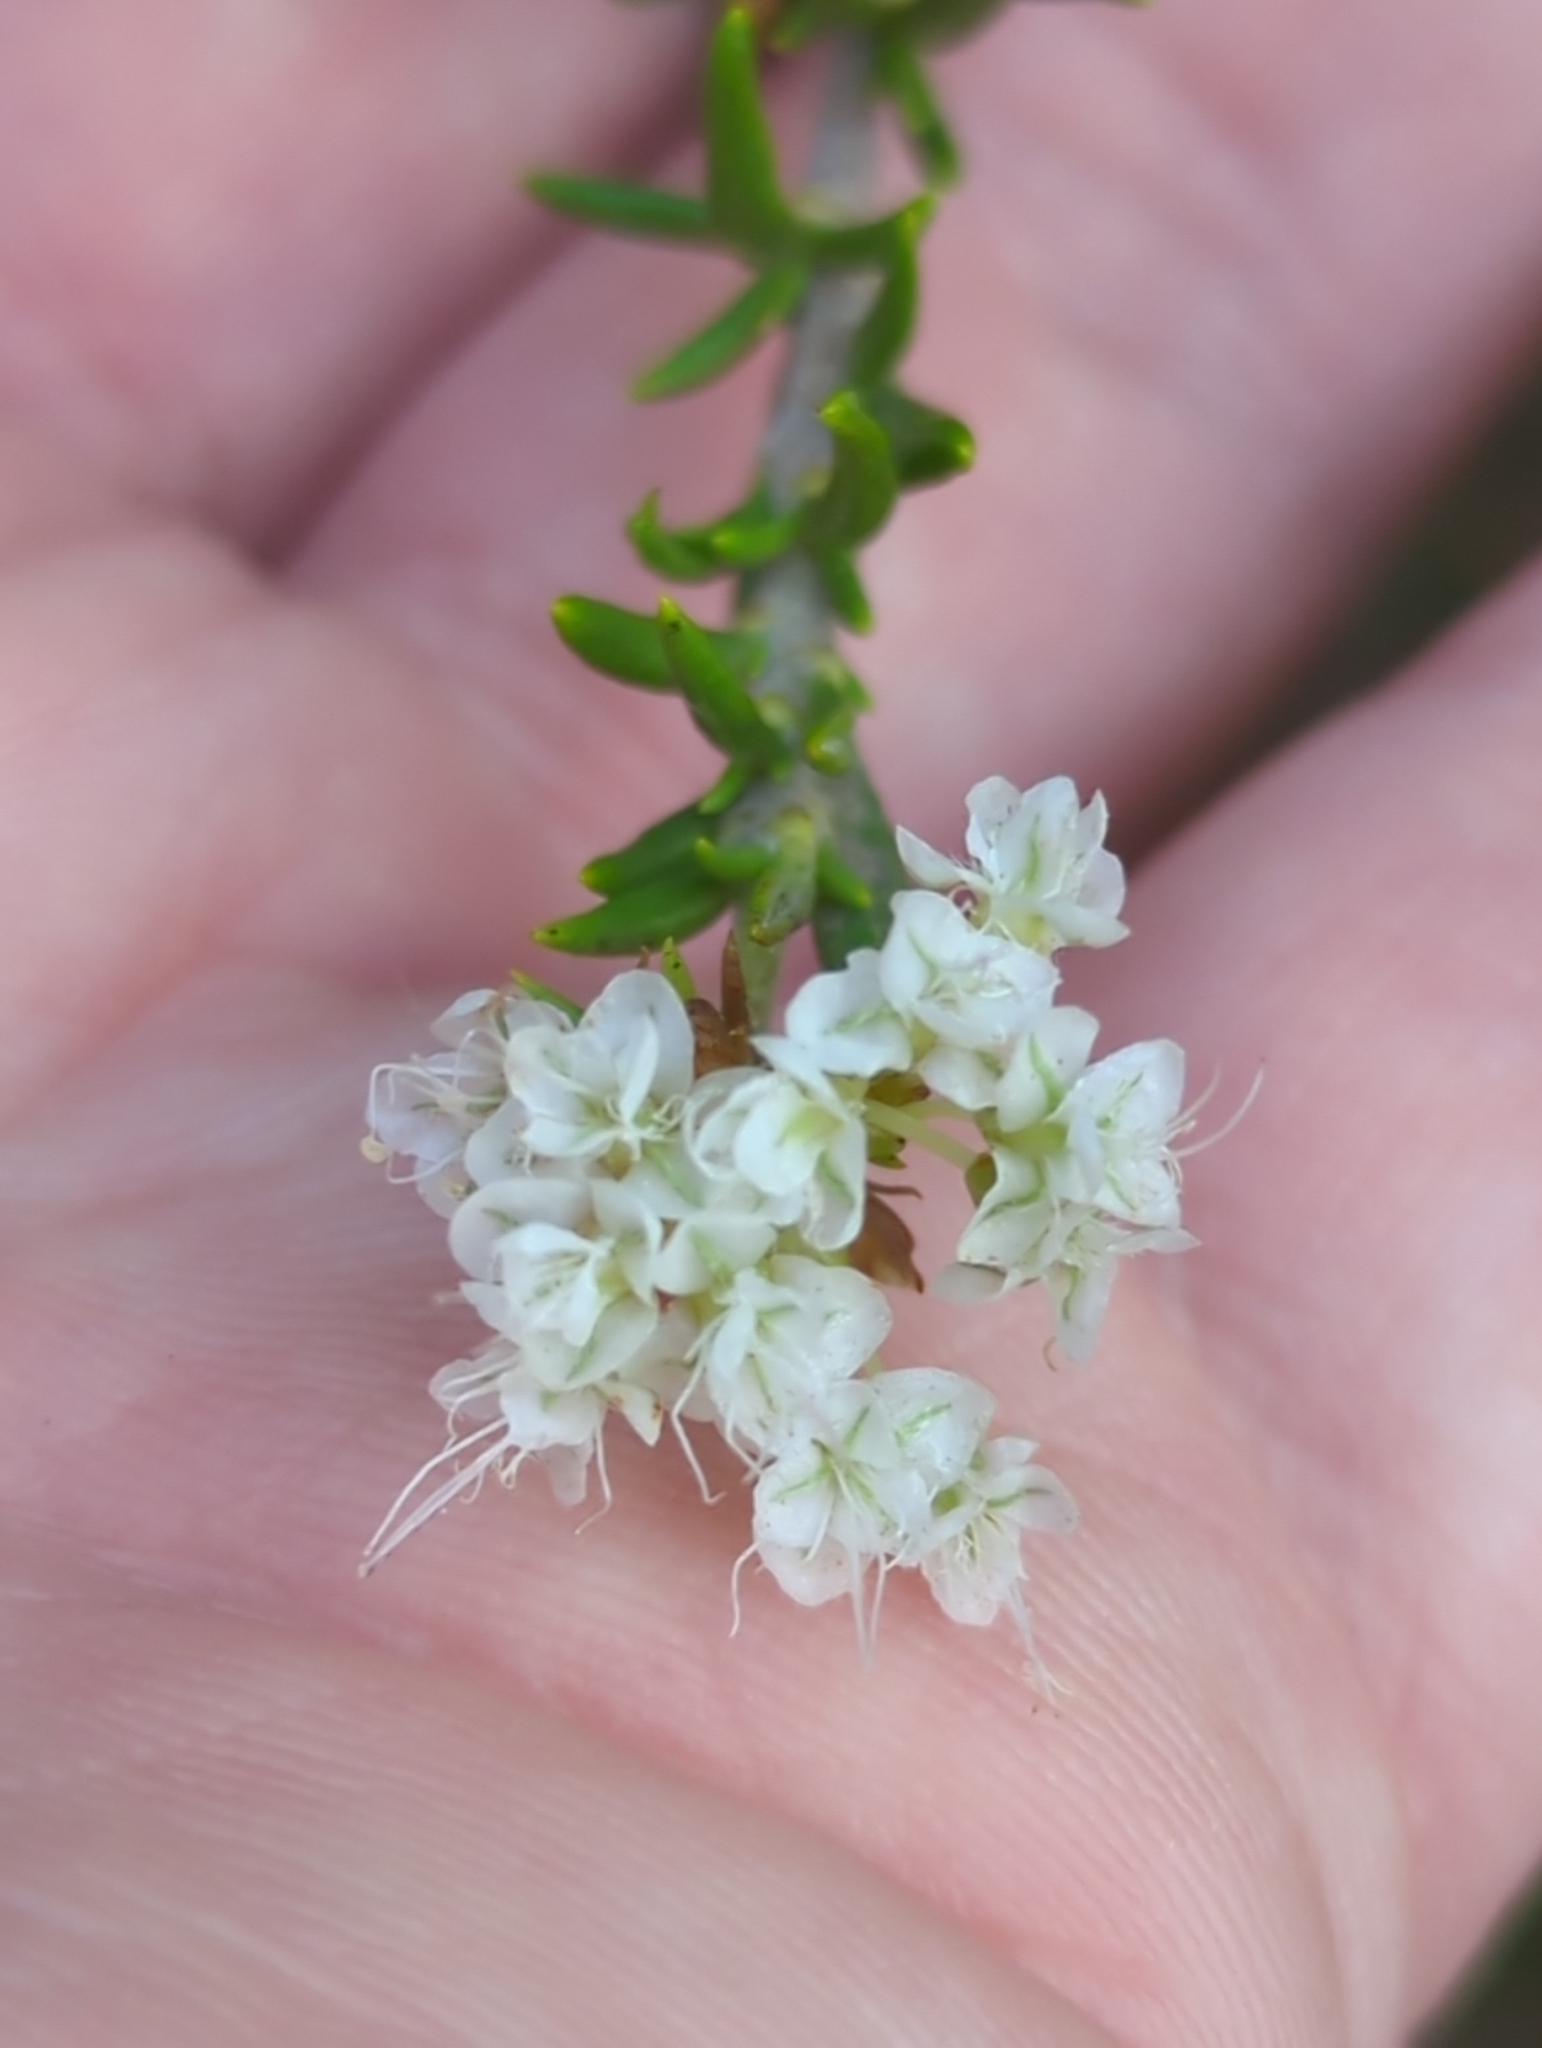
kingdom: Plantae
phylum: Tracheophyta
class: Magnoliopsida
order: Caryophyllales
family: Polygonaceae
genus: Eriogonum
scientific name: Eriogonum fasciculatum
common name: California wild buckwheat
